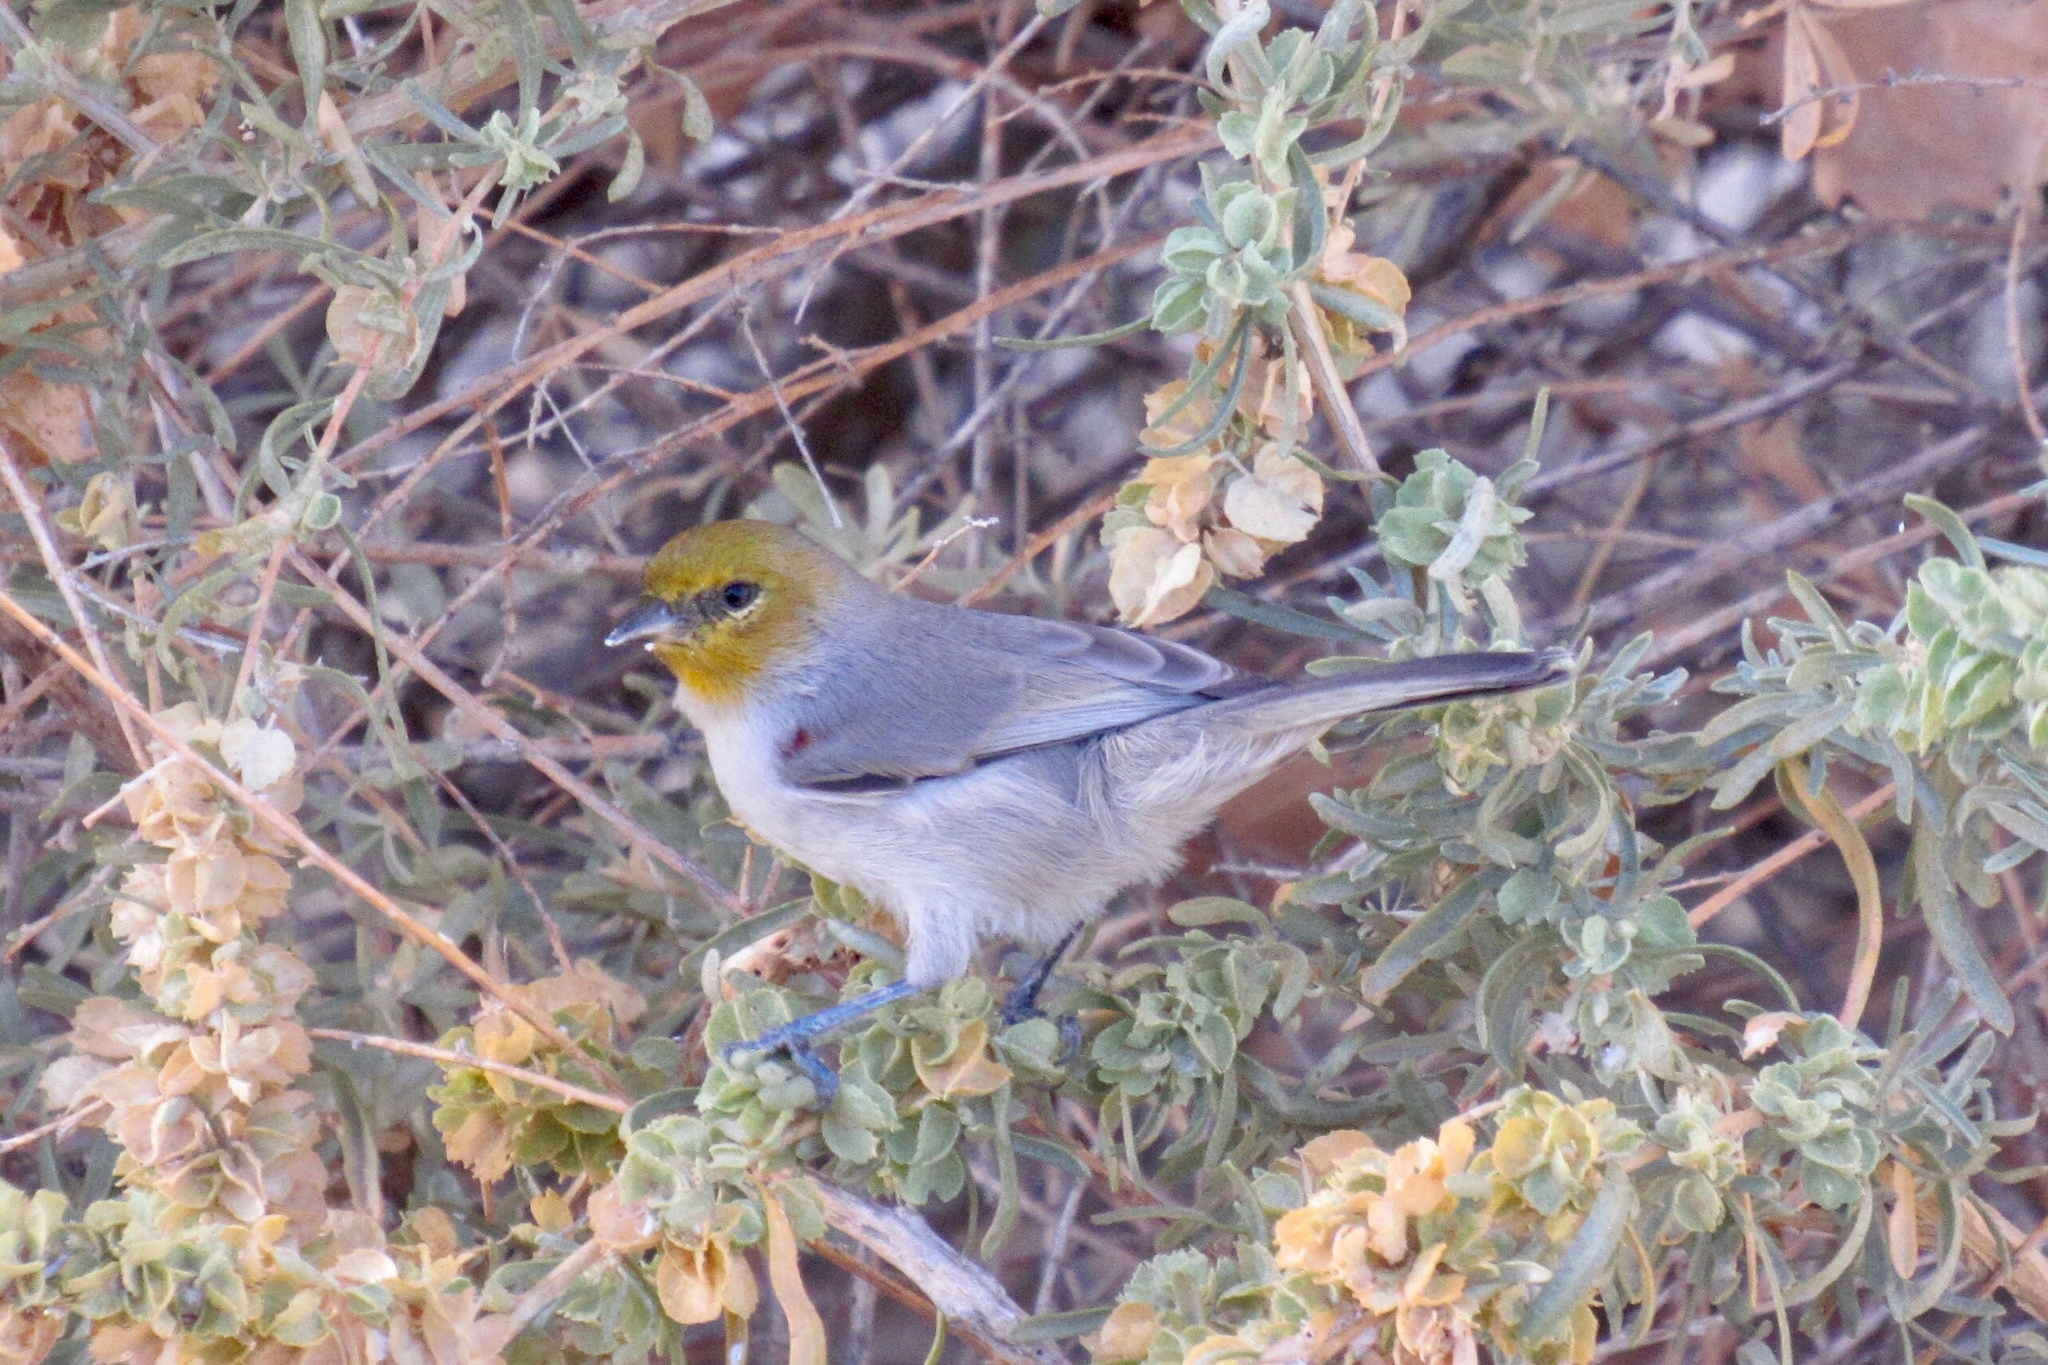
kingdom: Animalia
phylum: Chordata
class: Aves
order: Passeriformes
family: Remizidae
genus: Auriparus
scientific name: Auriparus flaviceps
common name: Verdin
